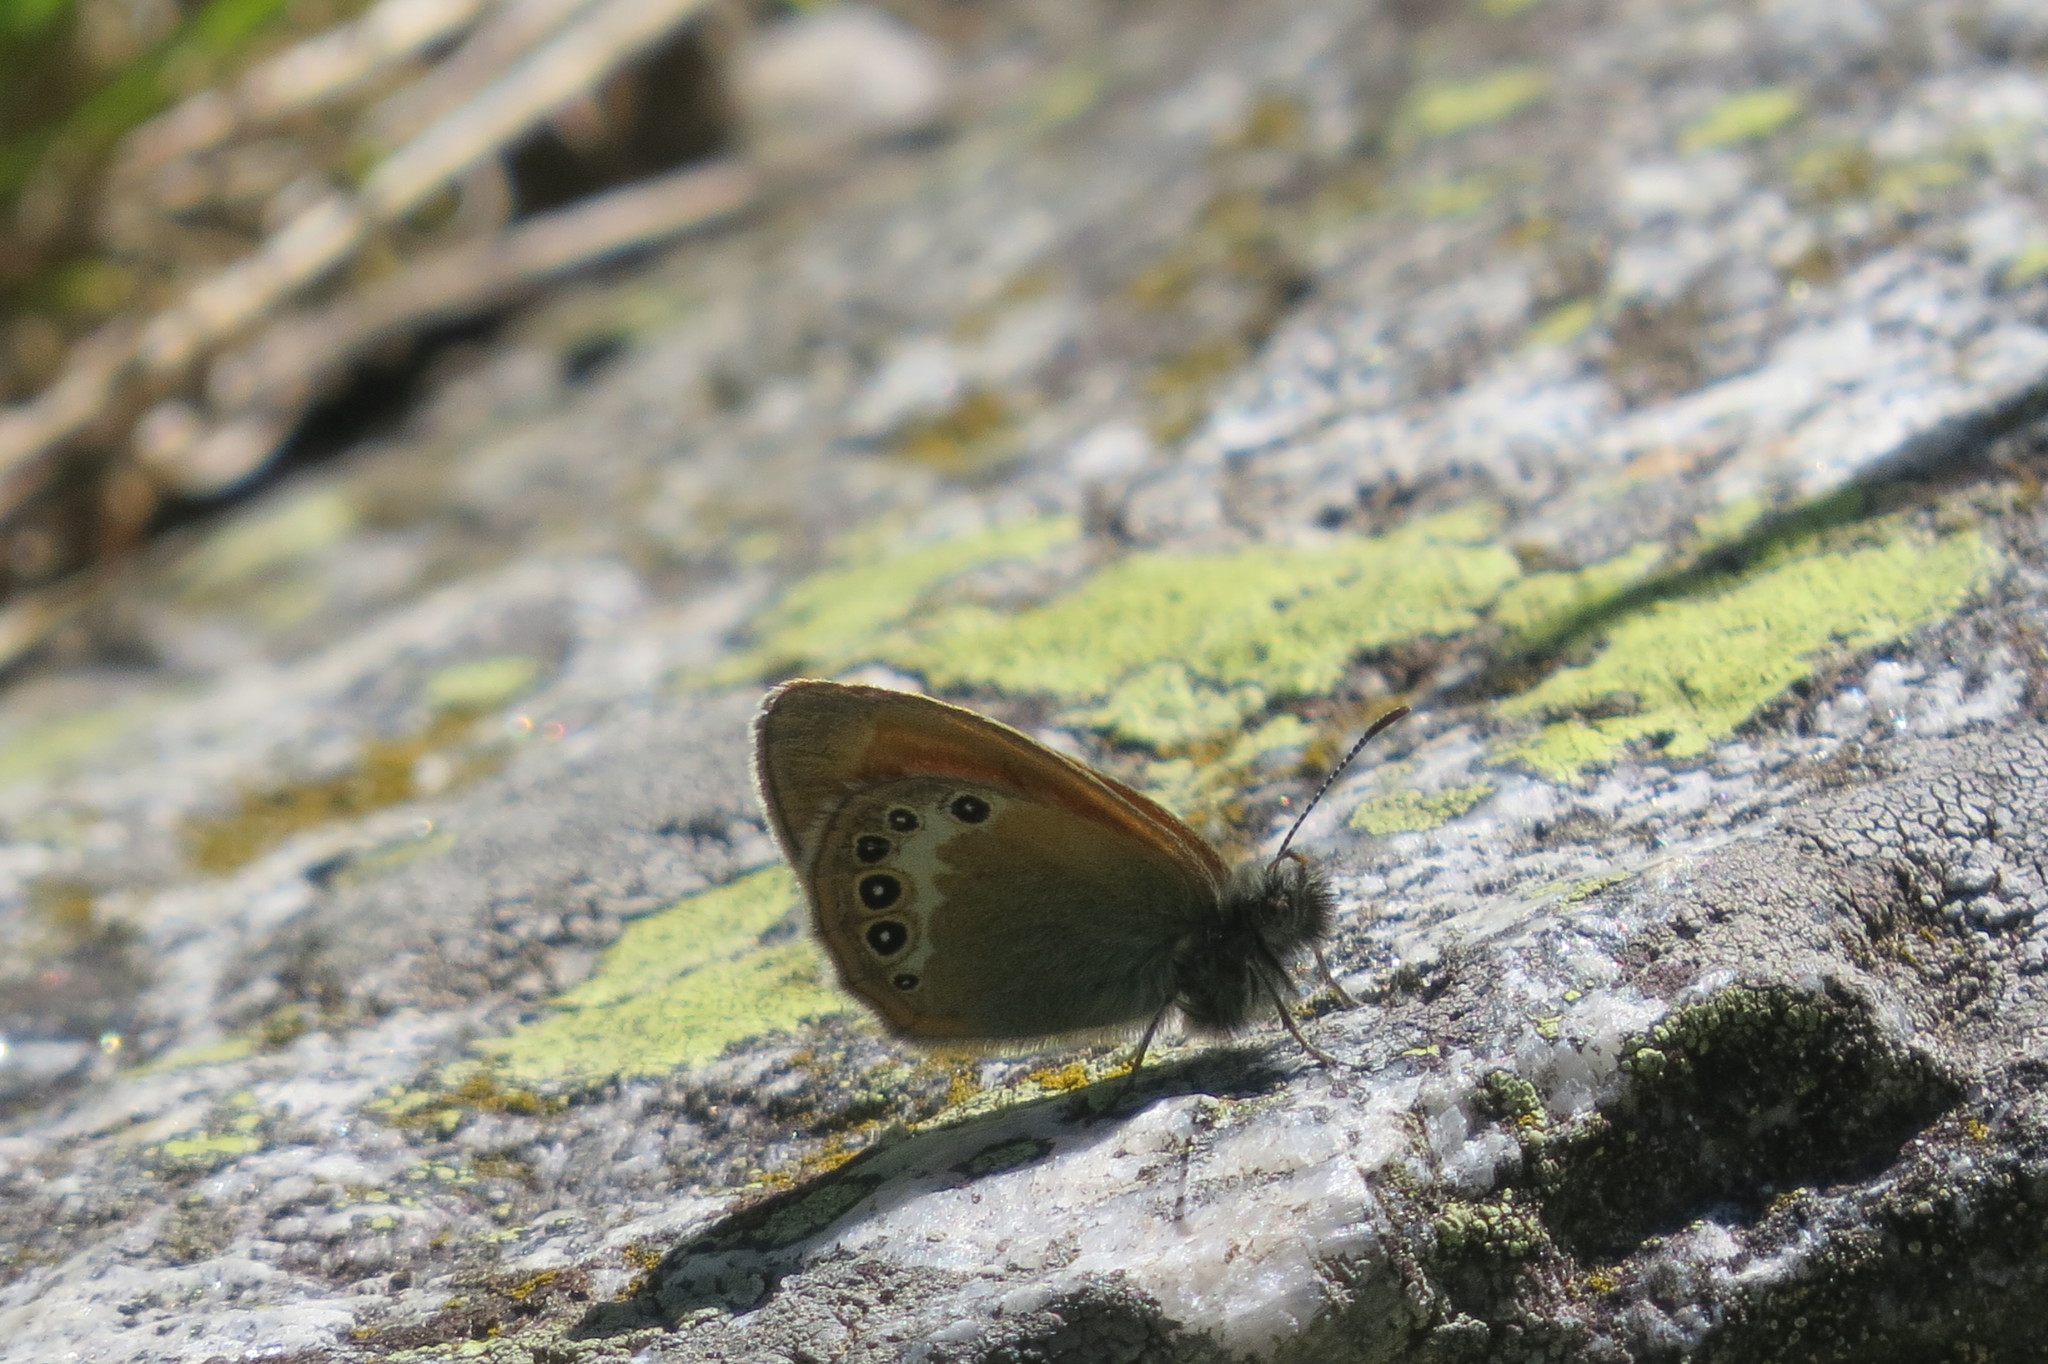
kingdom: Animalia
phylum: Arthropoda
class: Insecta
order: Lepidoptera
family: Nymphalidae
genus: Coenonympha
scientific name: Coenonympha
